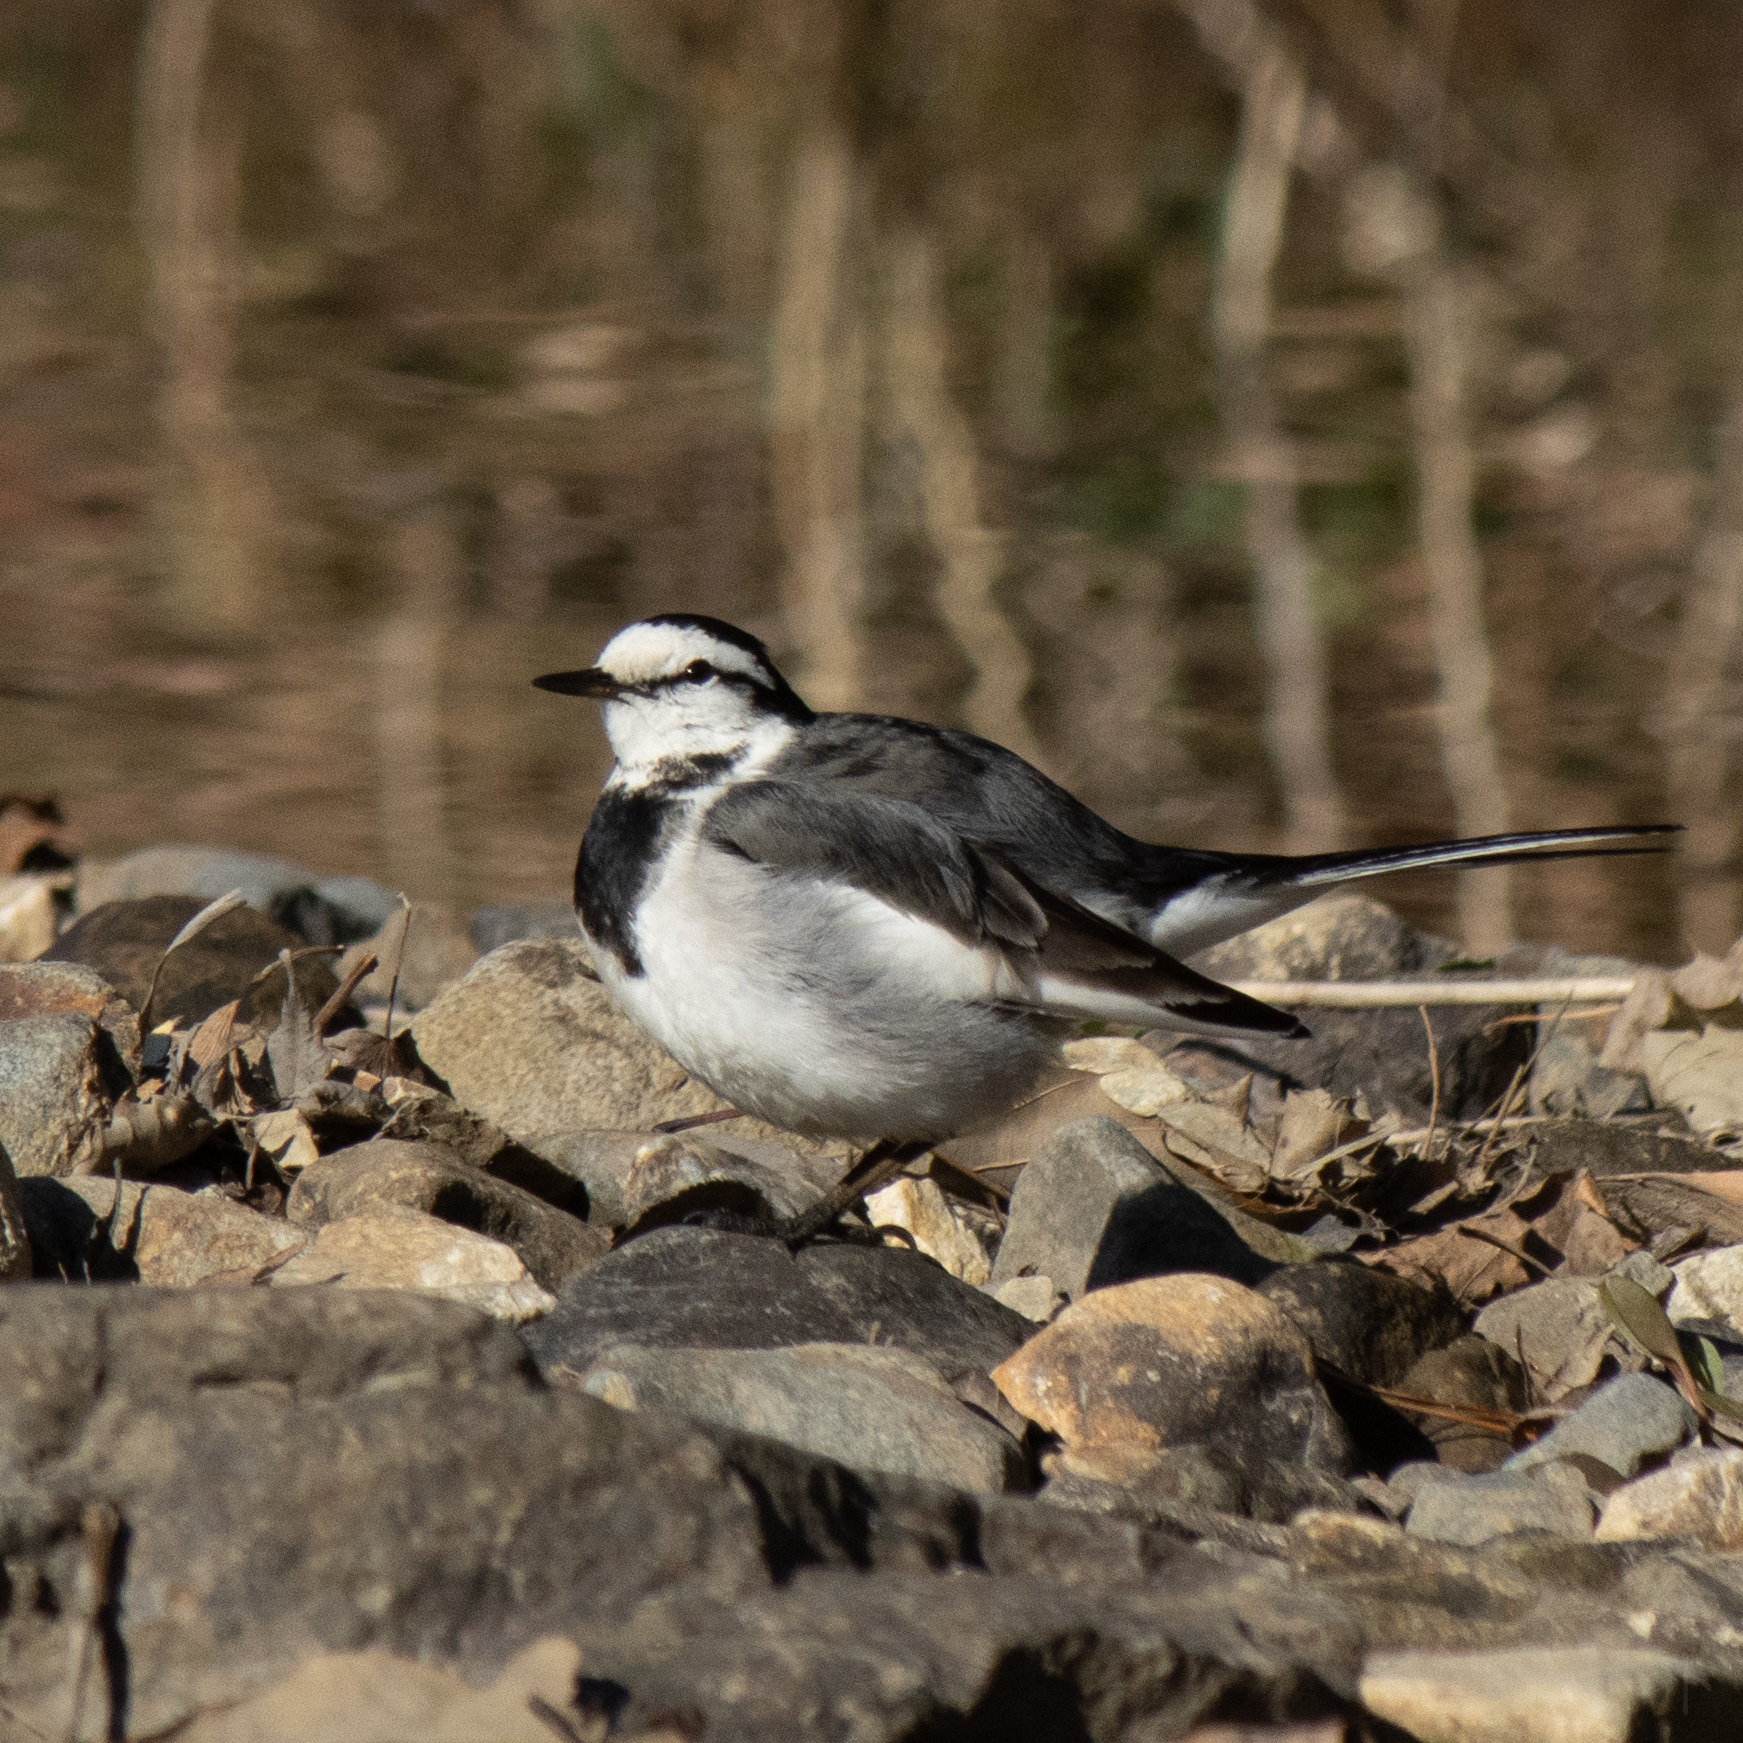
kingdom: Animalia
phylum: Chordata
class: Aves
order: Passeriformes
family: Motacillidae
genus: Motacilla
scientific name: Motacilla alba
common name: White wagtail
